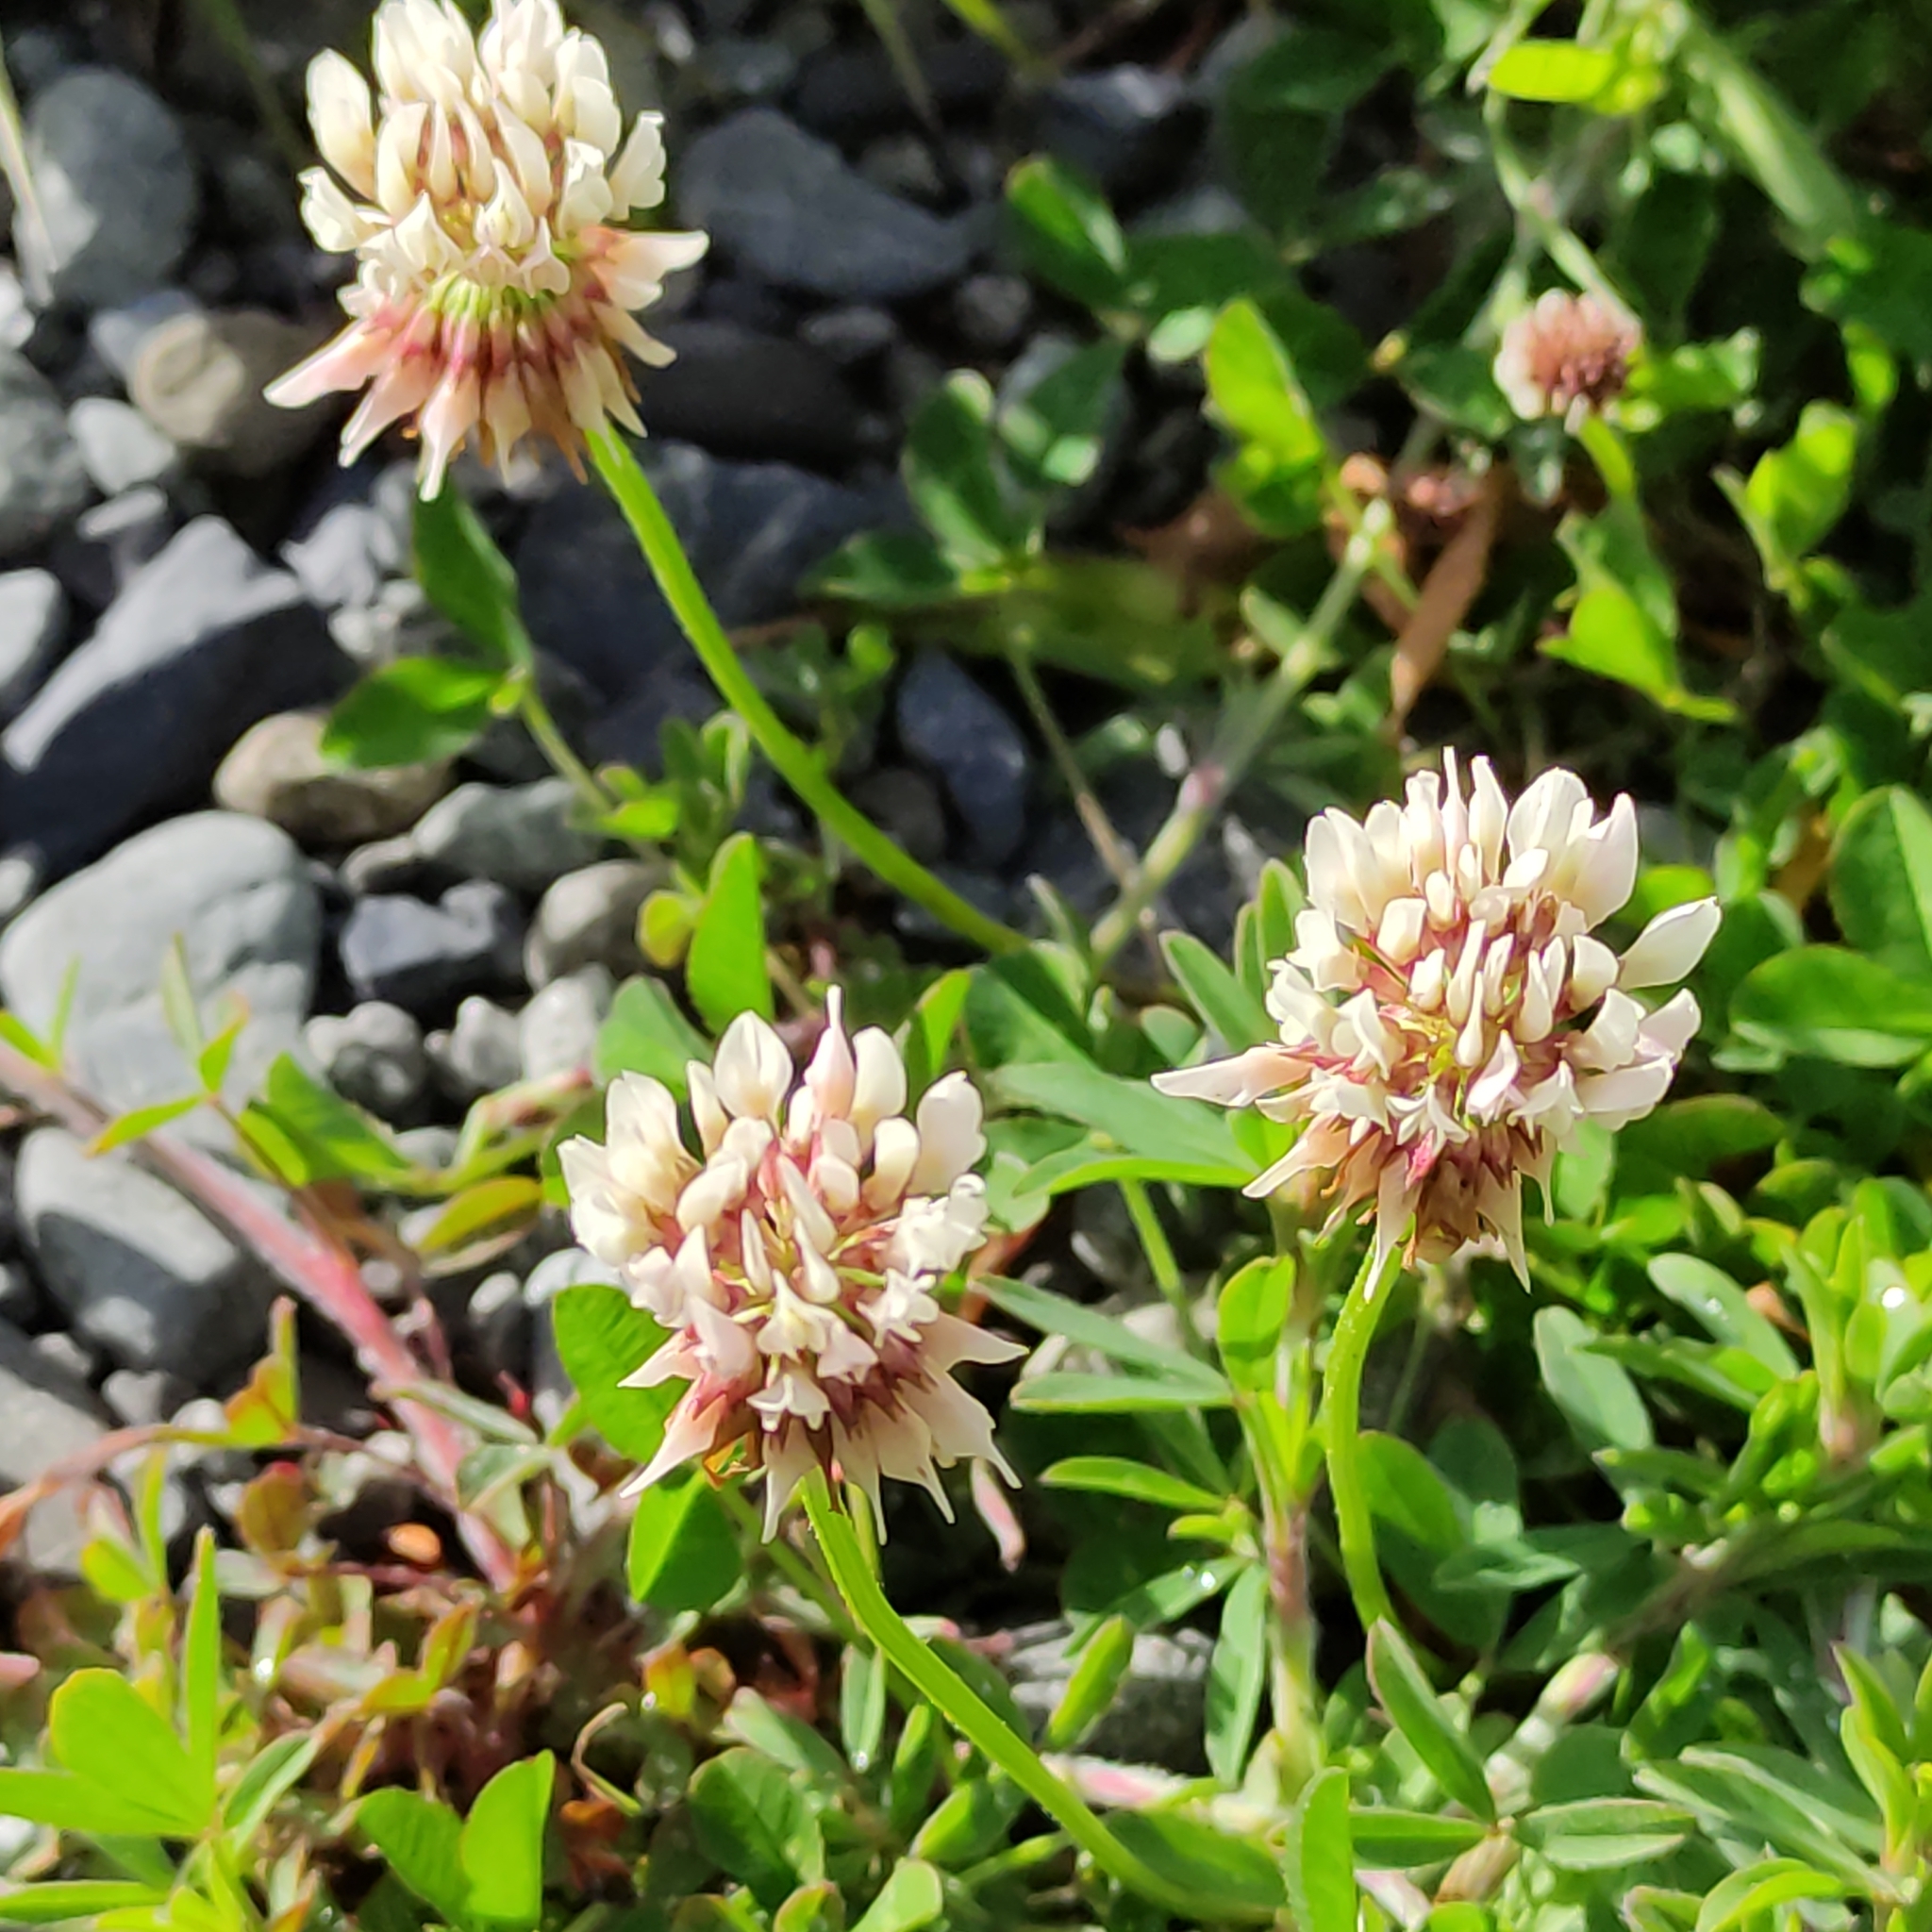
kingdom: Plantae
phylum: Tracheophyta
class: Magnoliopsida
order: Fabales
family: Fabaceae
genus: Trifolium
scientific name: Trifolium repens
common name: White clover
